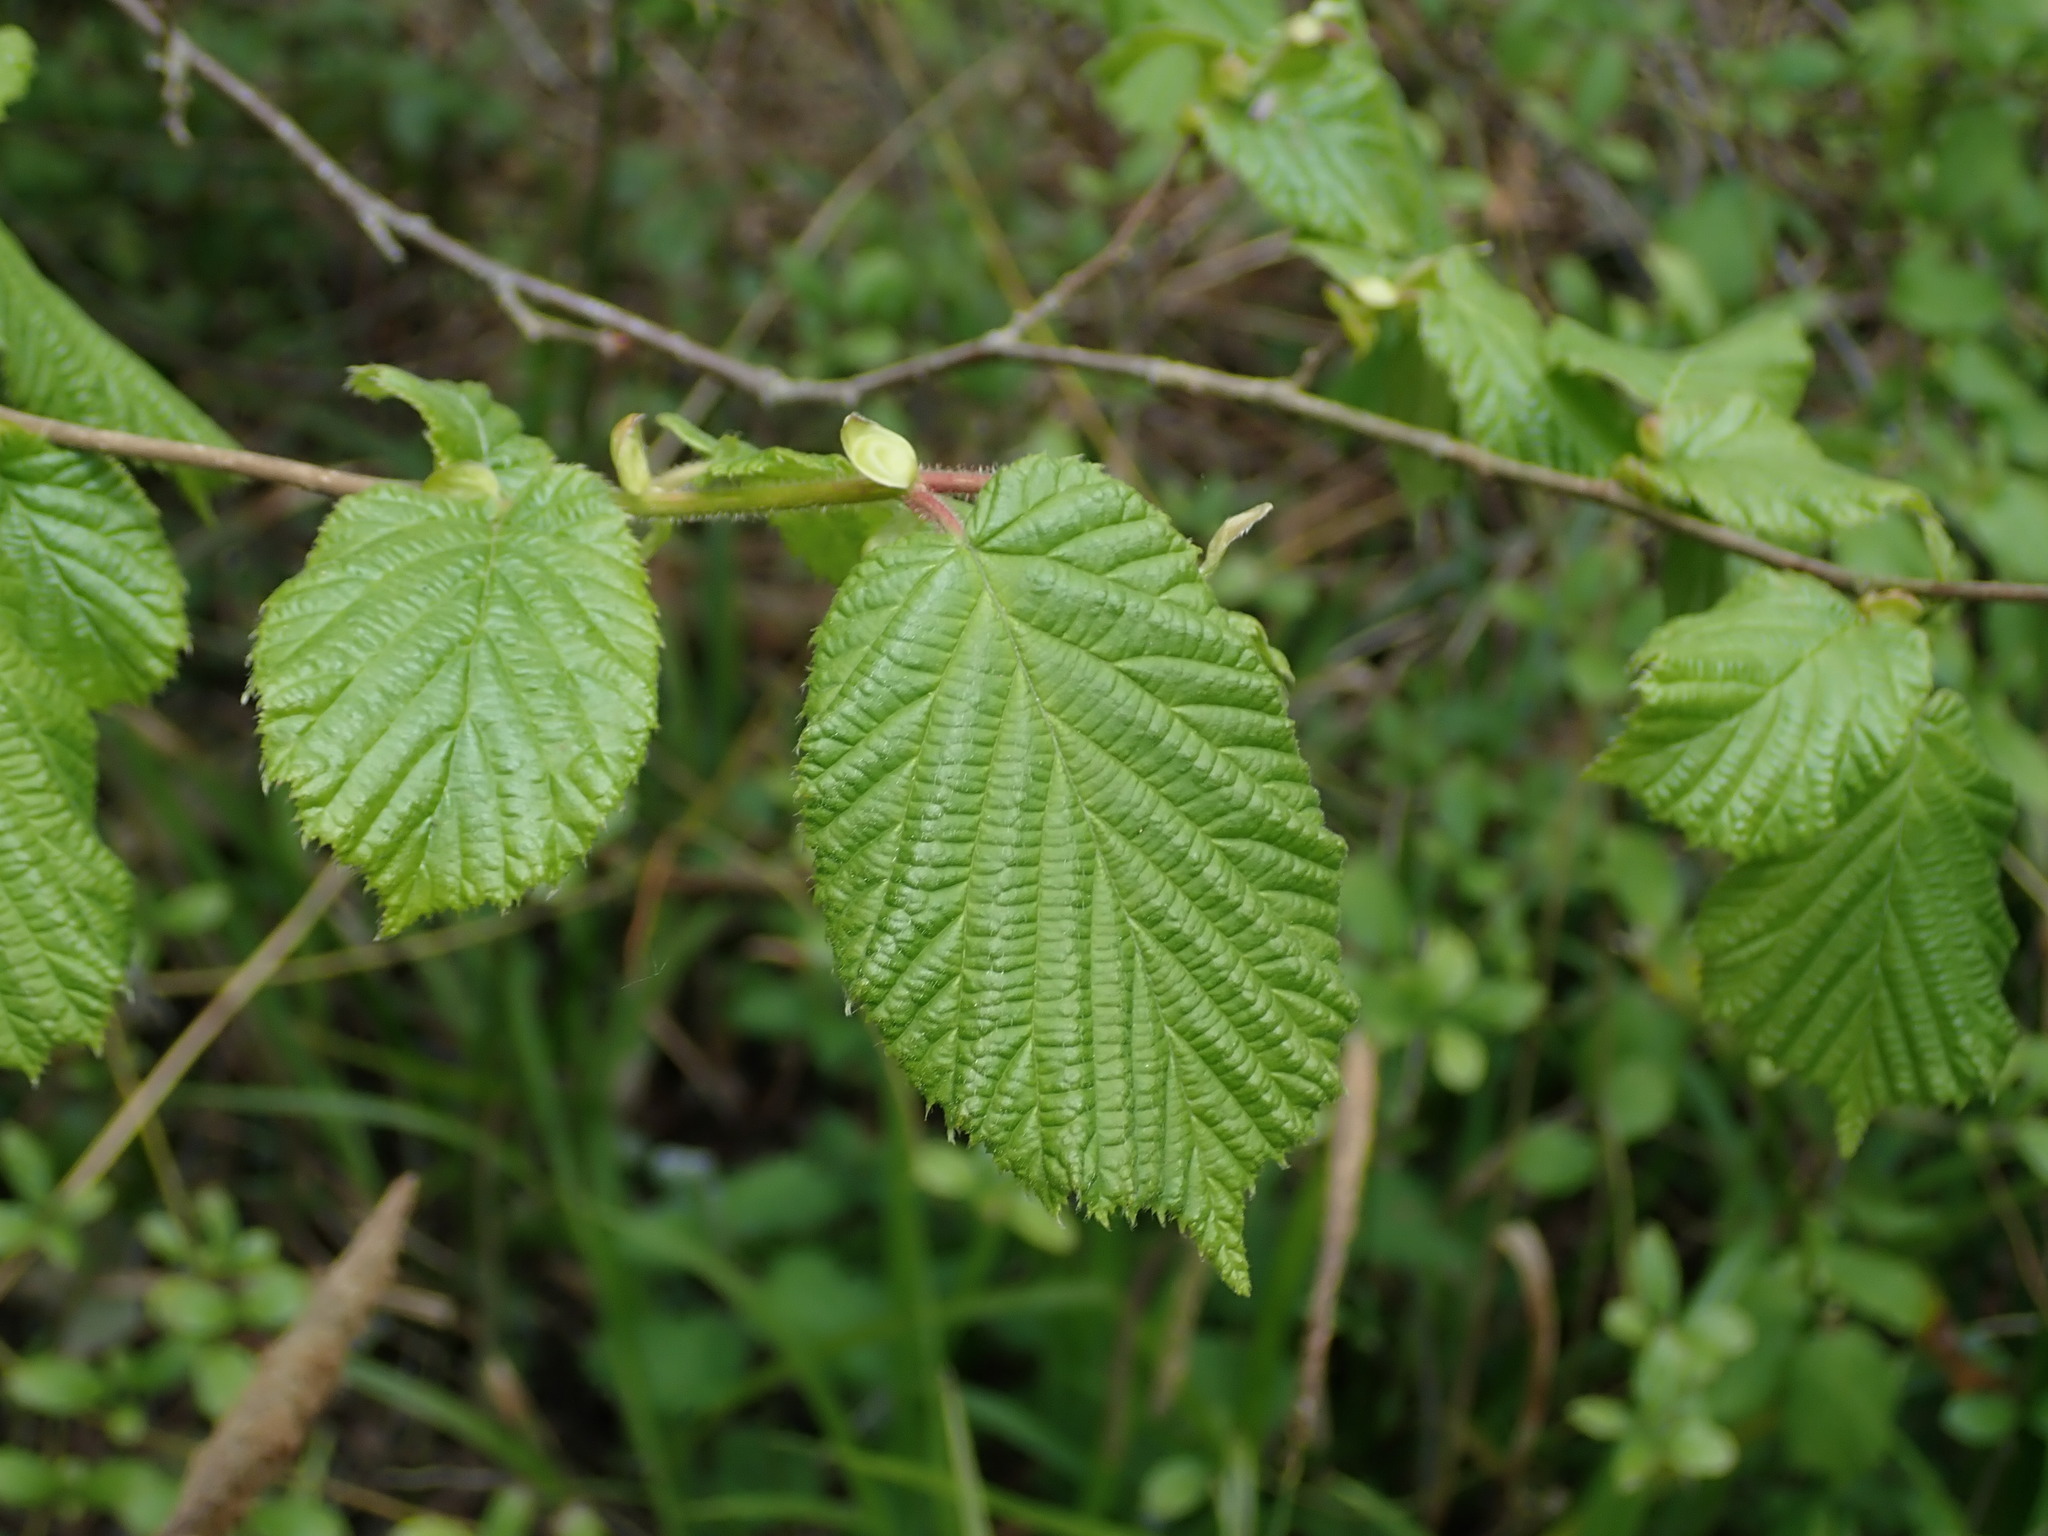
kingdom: Plantae
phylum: Tracheophyta
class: Magnoliopsida
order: Fagales
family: Betulaceae
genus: Corylus
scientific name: Corylus avellana
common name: European hazel
